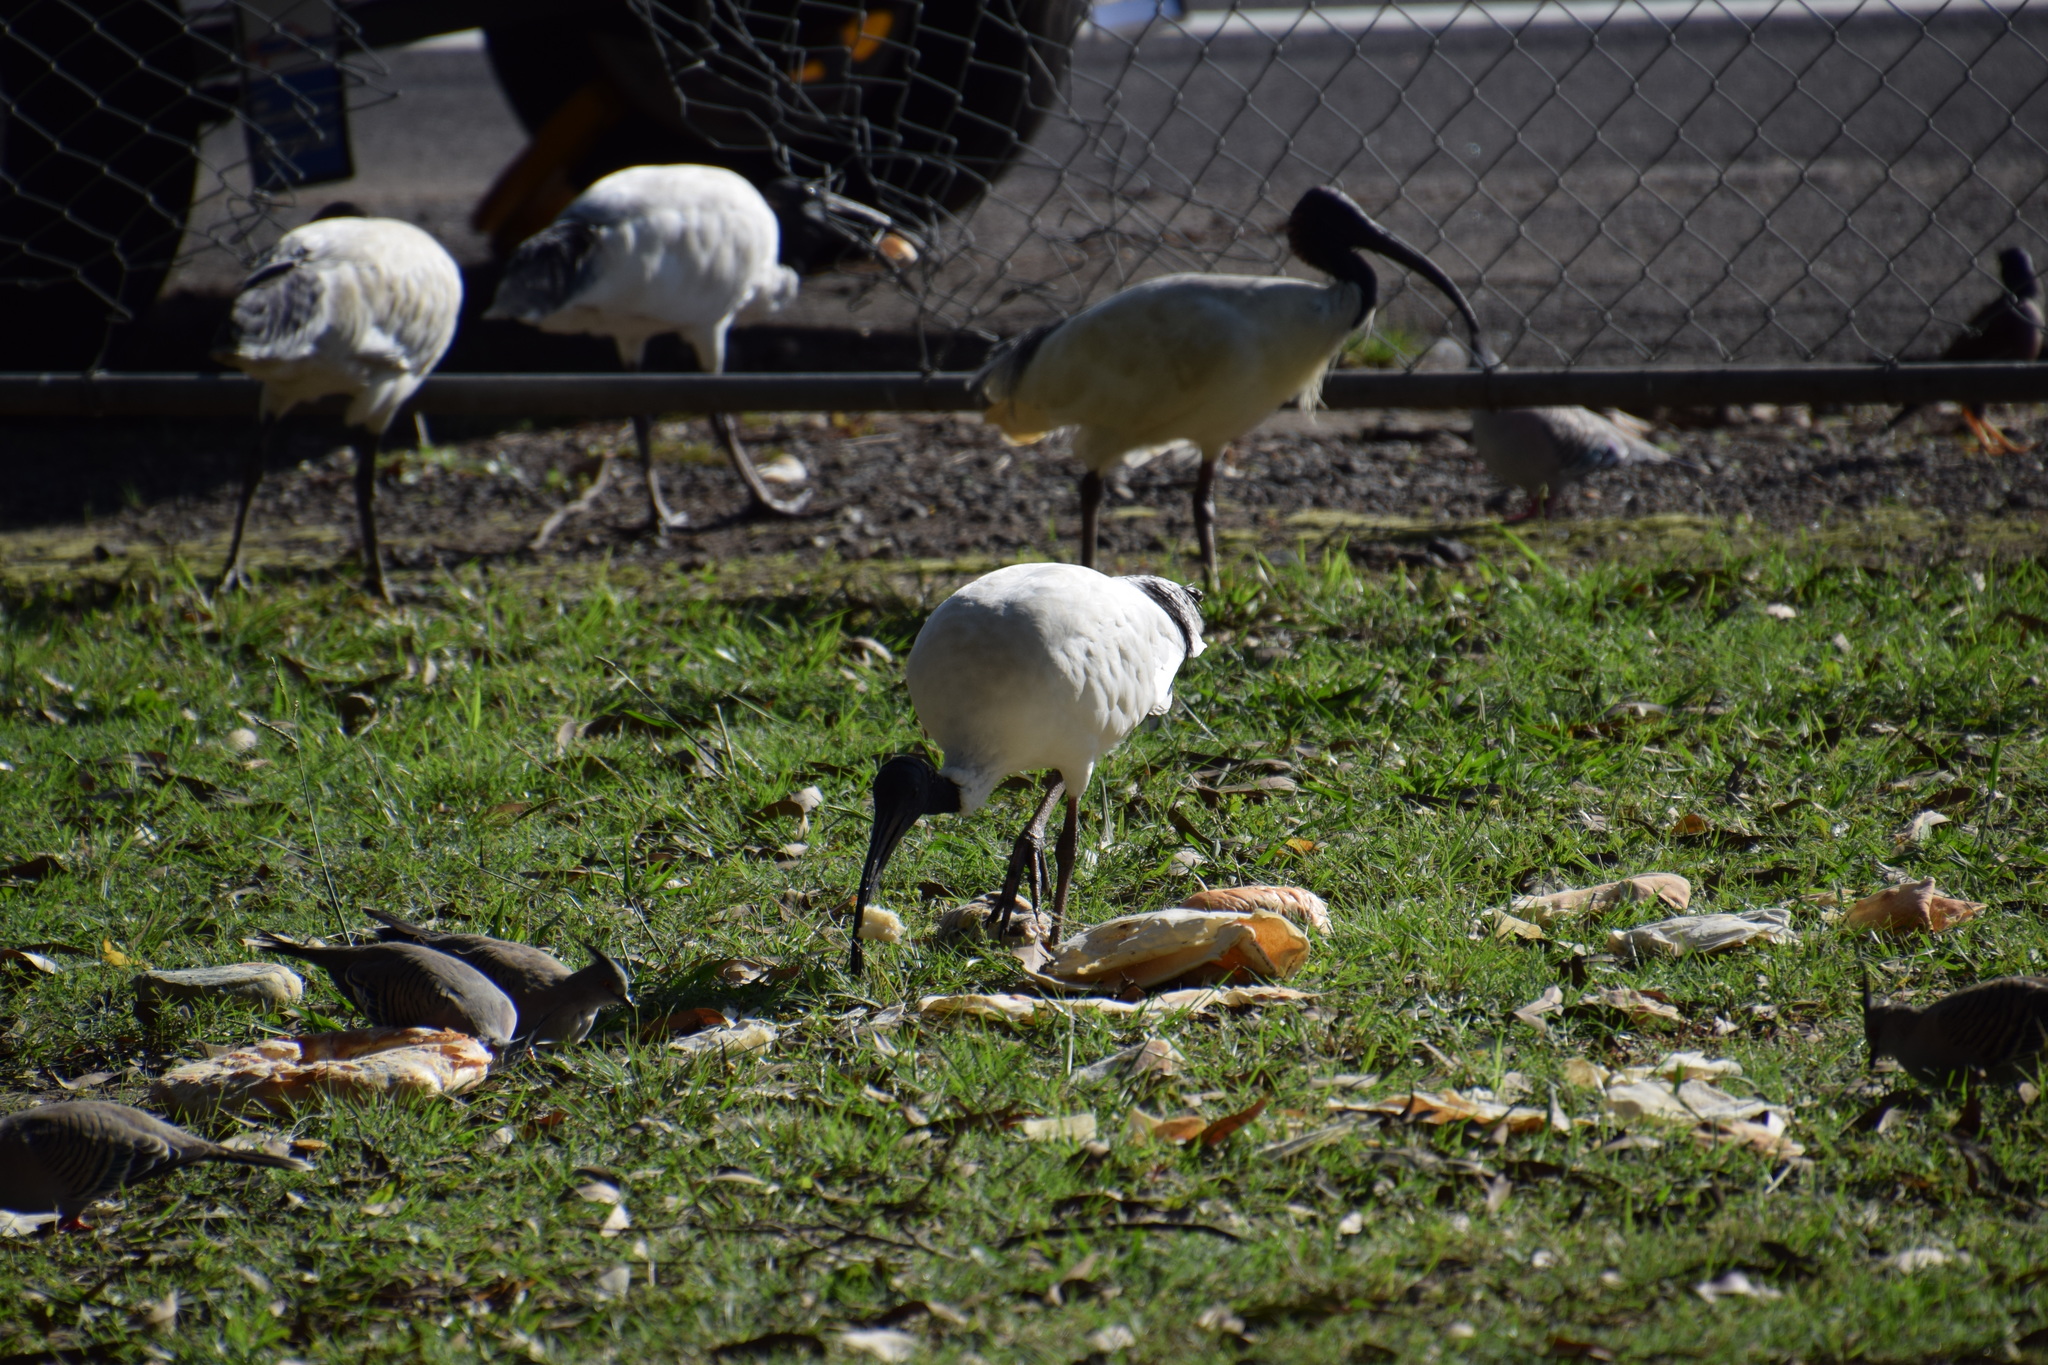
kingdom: Animalia
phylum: Chordata
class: Aves
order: Pelecaniformes
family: Threskiornithidae
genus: Threskiornis
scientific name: Threskiornis molucca
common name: Australian white ibis
